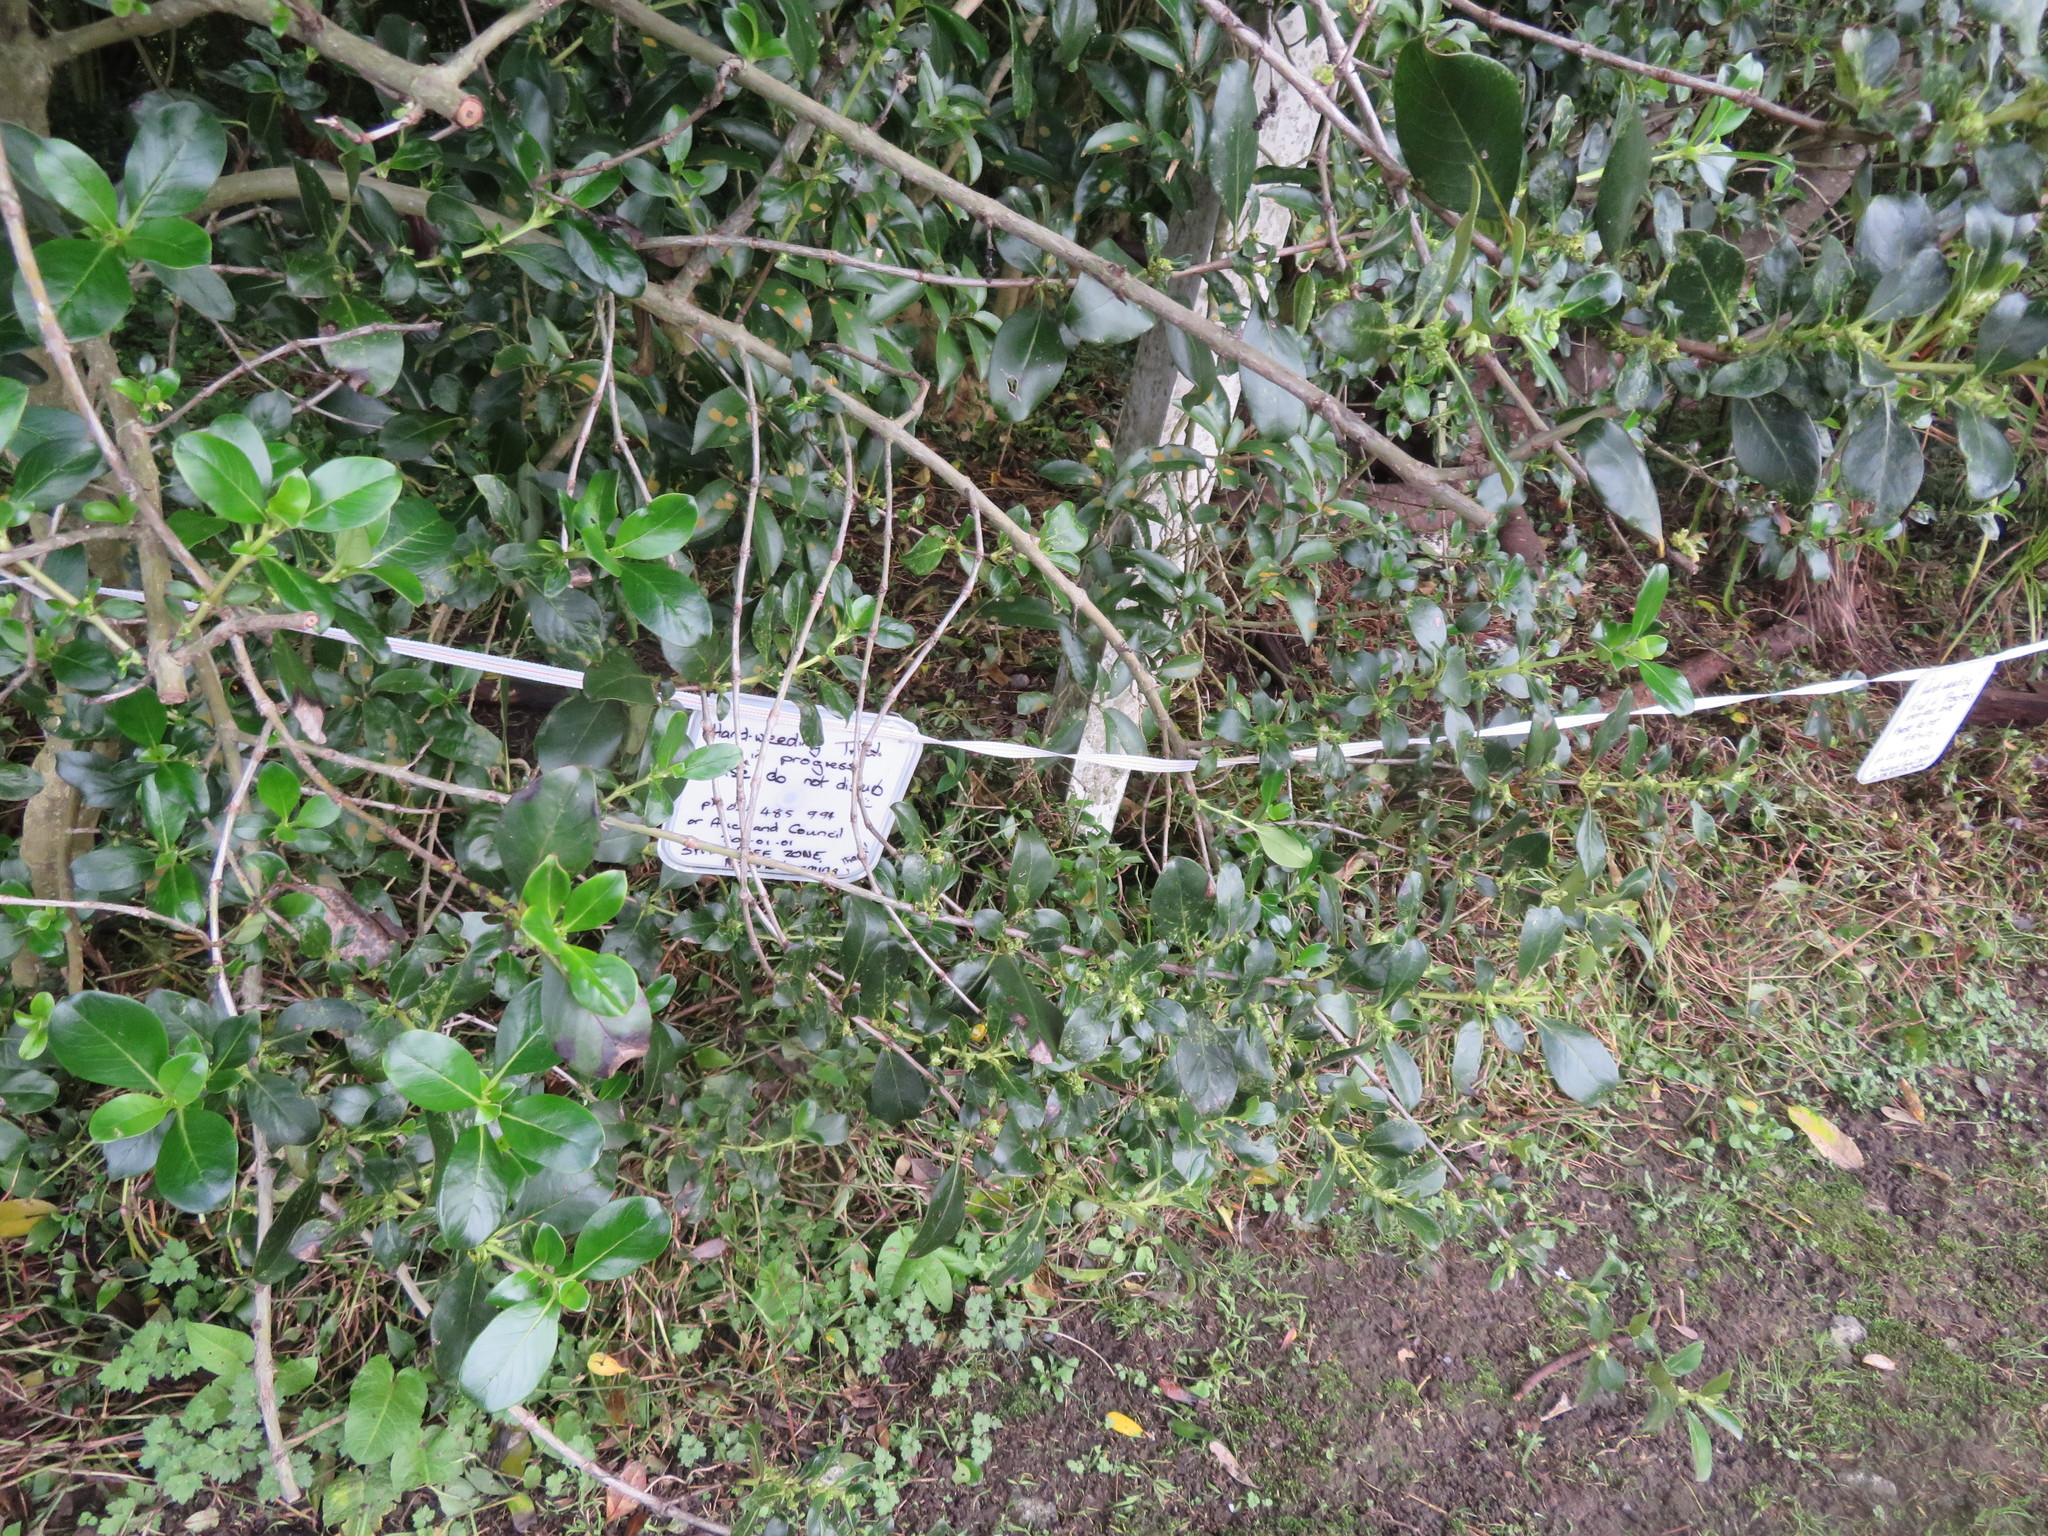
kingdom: Plantae
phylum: Tracheophyta
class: Magnoliopsida
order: Caryophyllales
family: Polygonaceae
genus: Rumex
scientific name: Rumex obtusifolius
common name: Bitter dock
